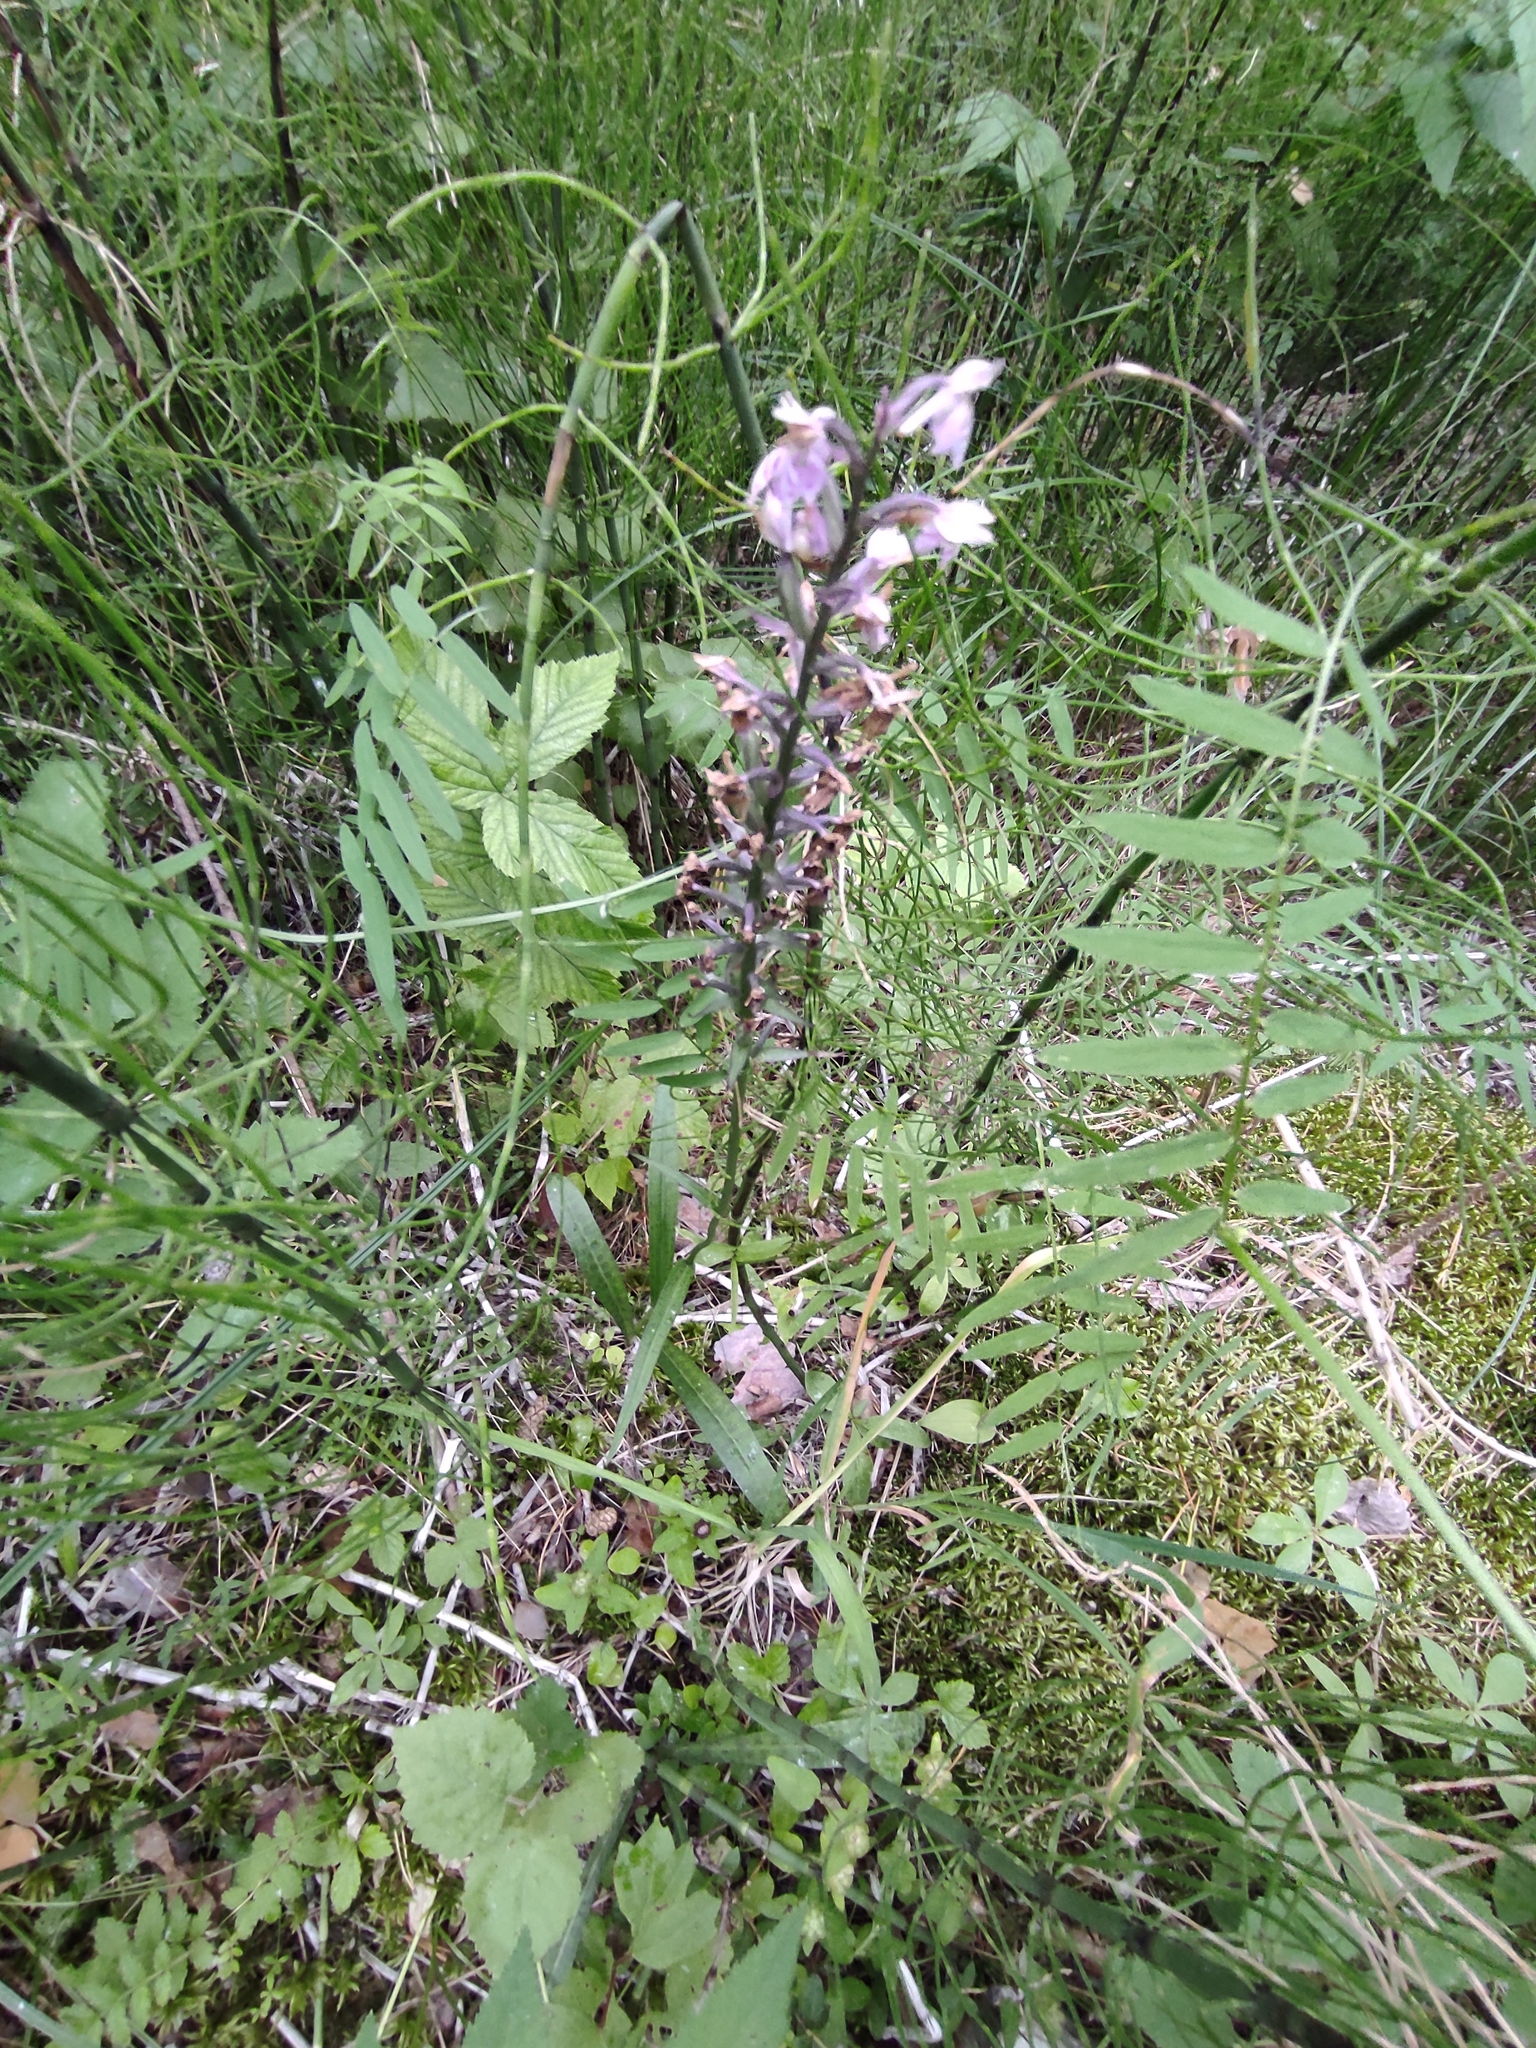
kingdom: Plantae
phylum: Tracheophyta
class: Liliopsida
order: Asparagales
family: Orchidaceae
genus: Dactylorhiza
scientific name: Dactylorhiza maculata
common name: Heath spotted-orchid
